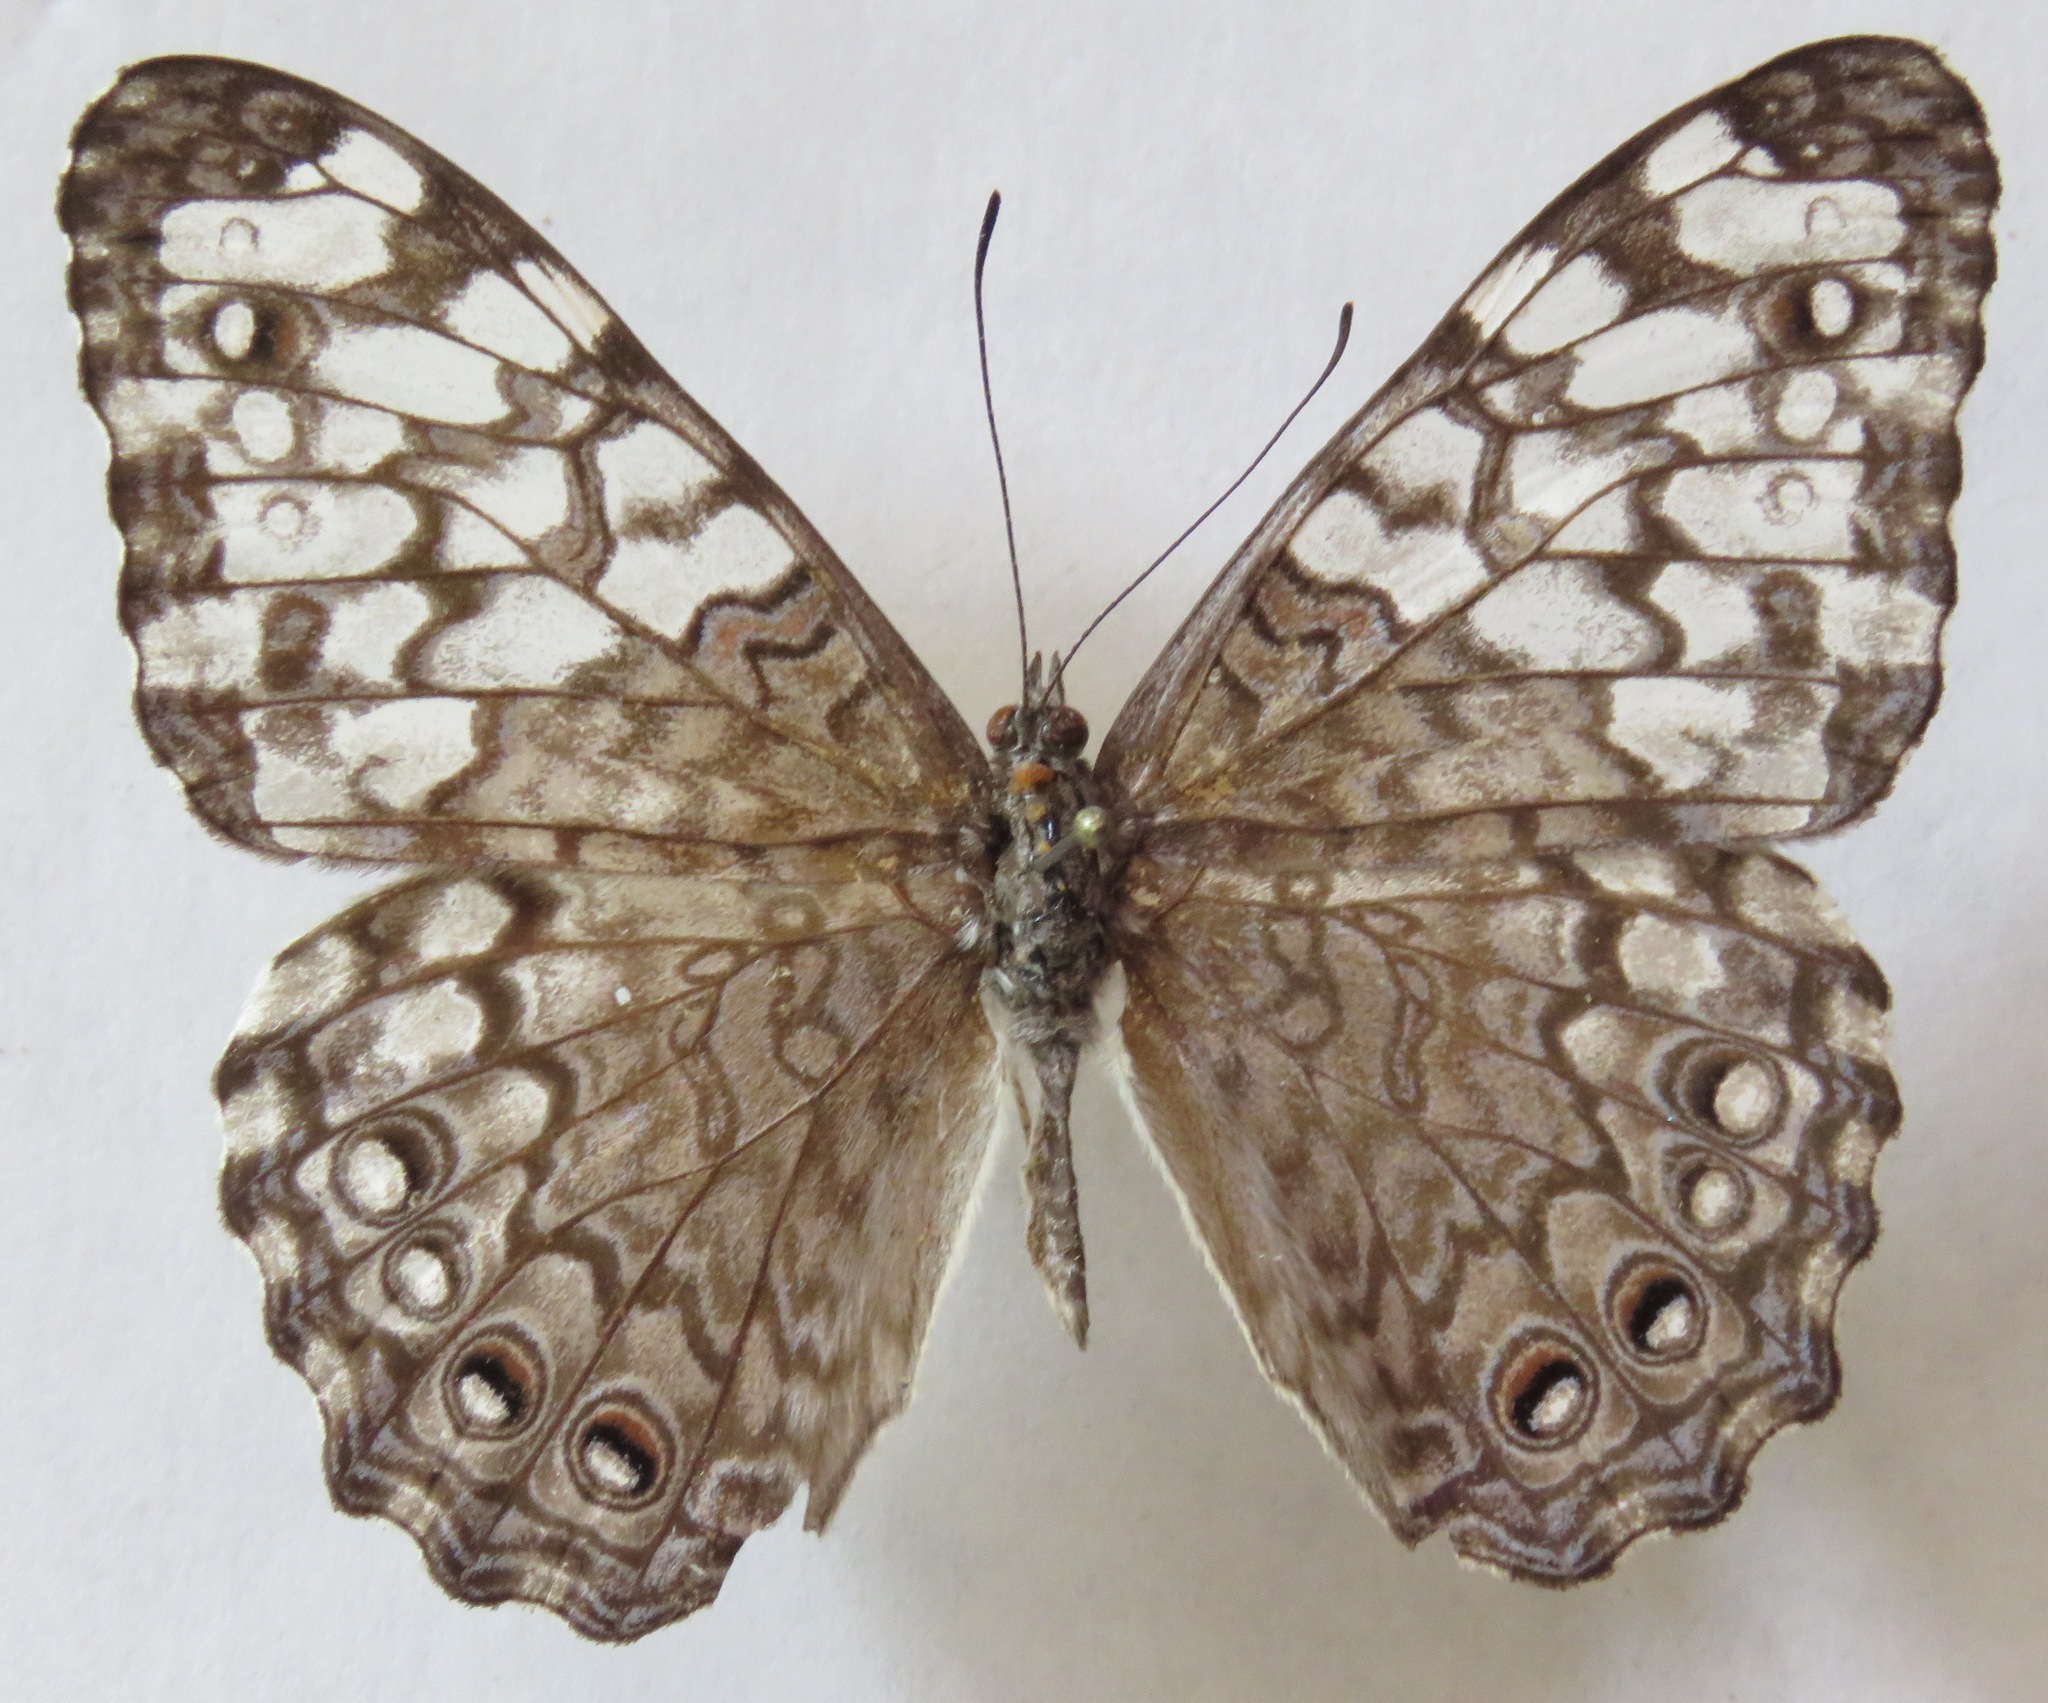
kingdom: Animalia
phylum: Arthropoda
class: Insecta
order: Lepidoptera
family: Nymphalidae
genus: Hamadryas
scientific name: Hamadryas februa
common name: Gray cracker
